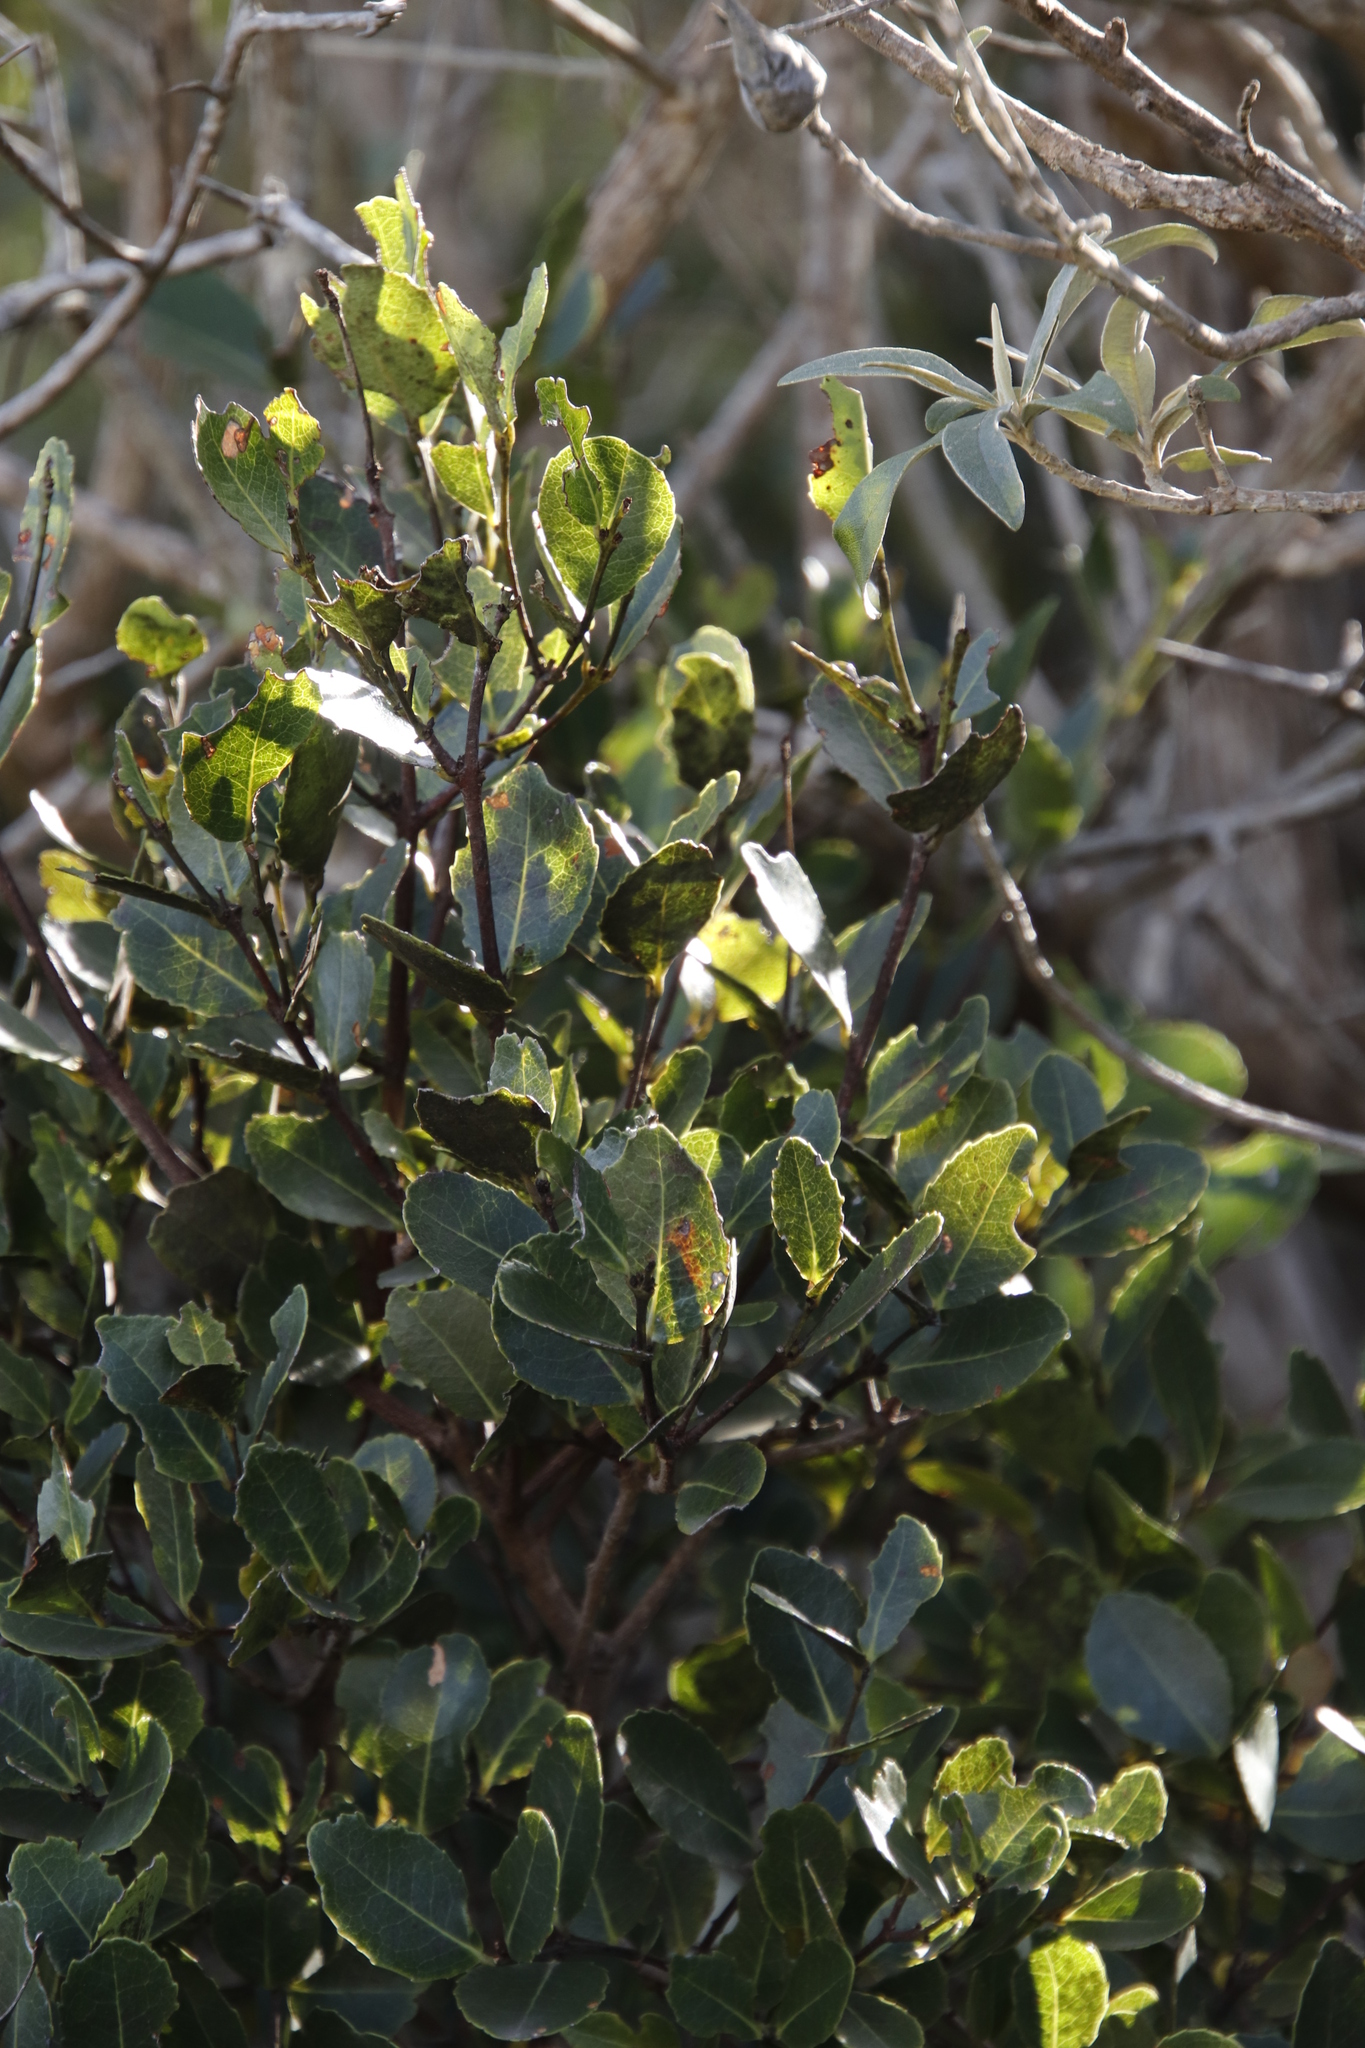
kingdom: Plantae
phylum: Tracheophyta
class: Magnoliopsida
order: Celastrales
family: Celastraceae
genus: Cassine
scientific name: Cassine peragua
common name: Cape saffron
